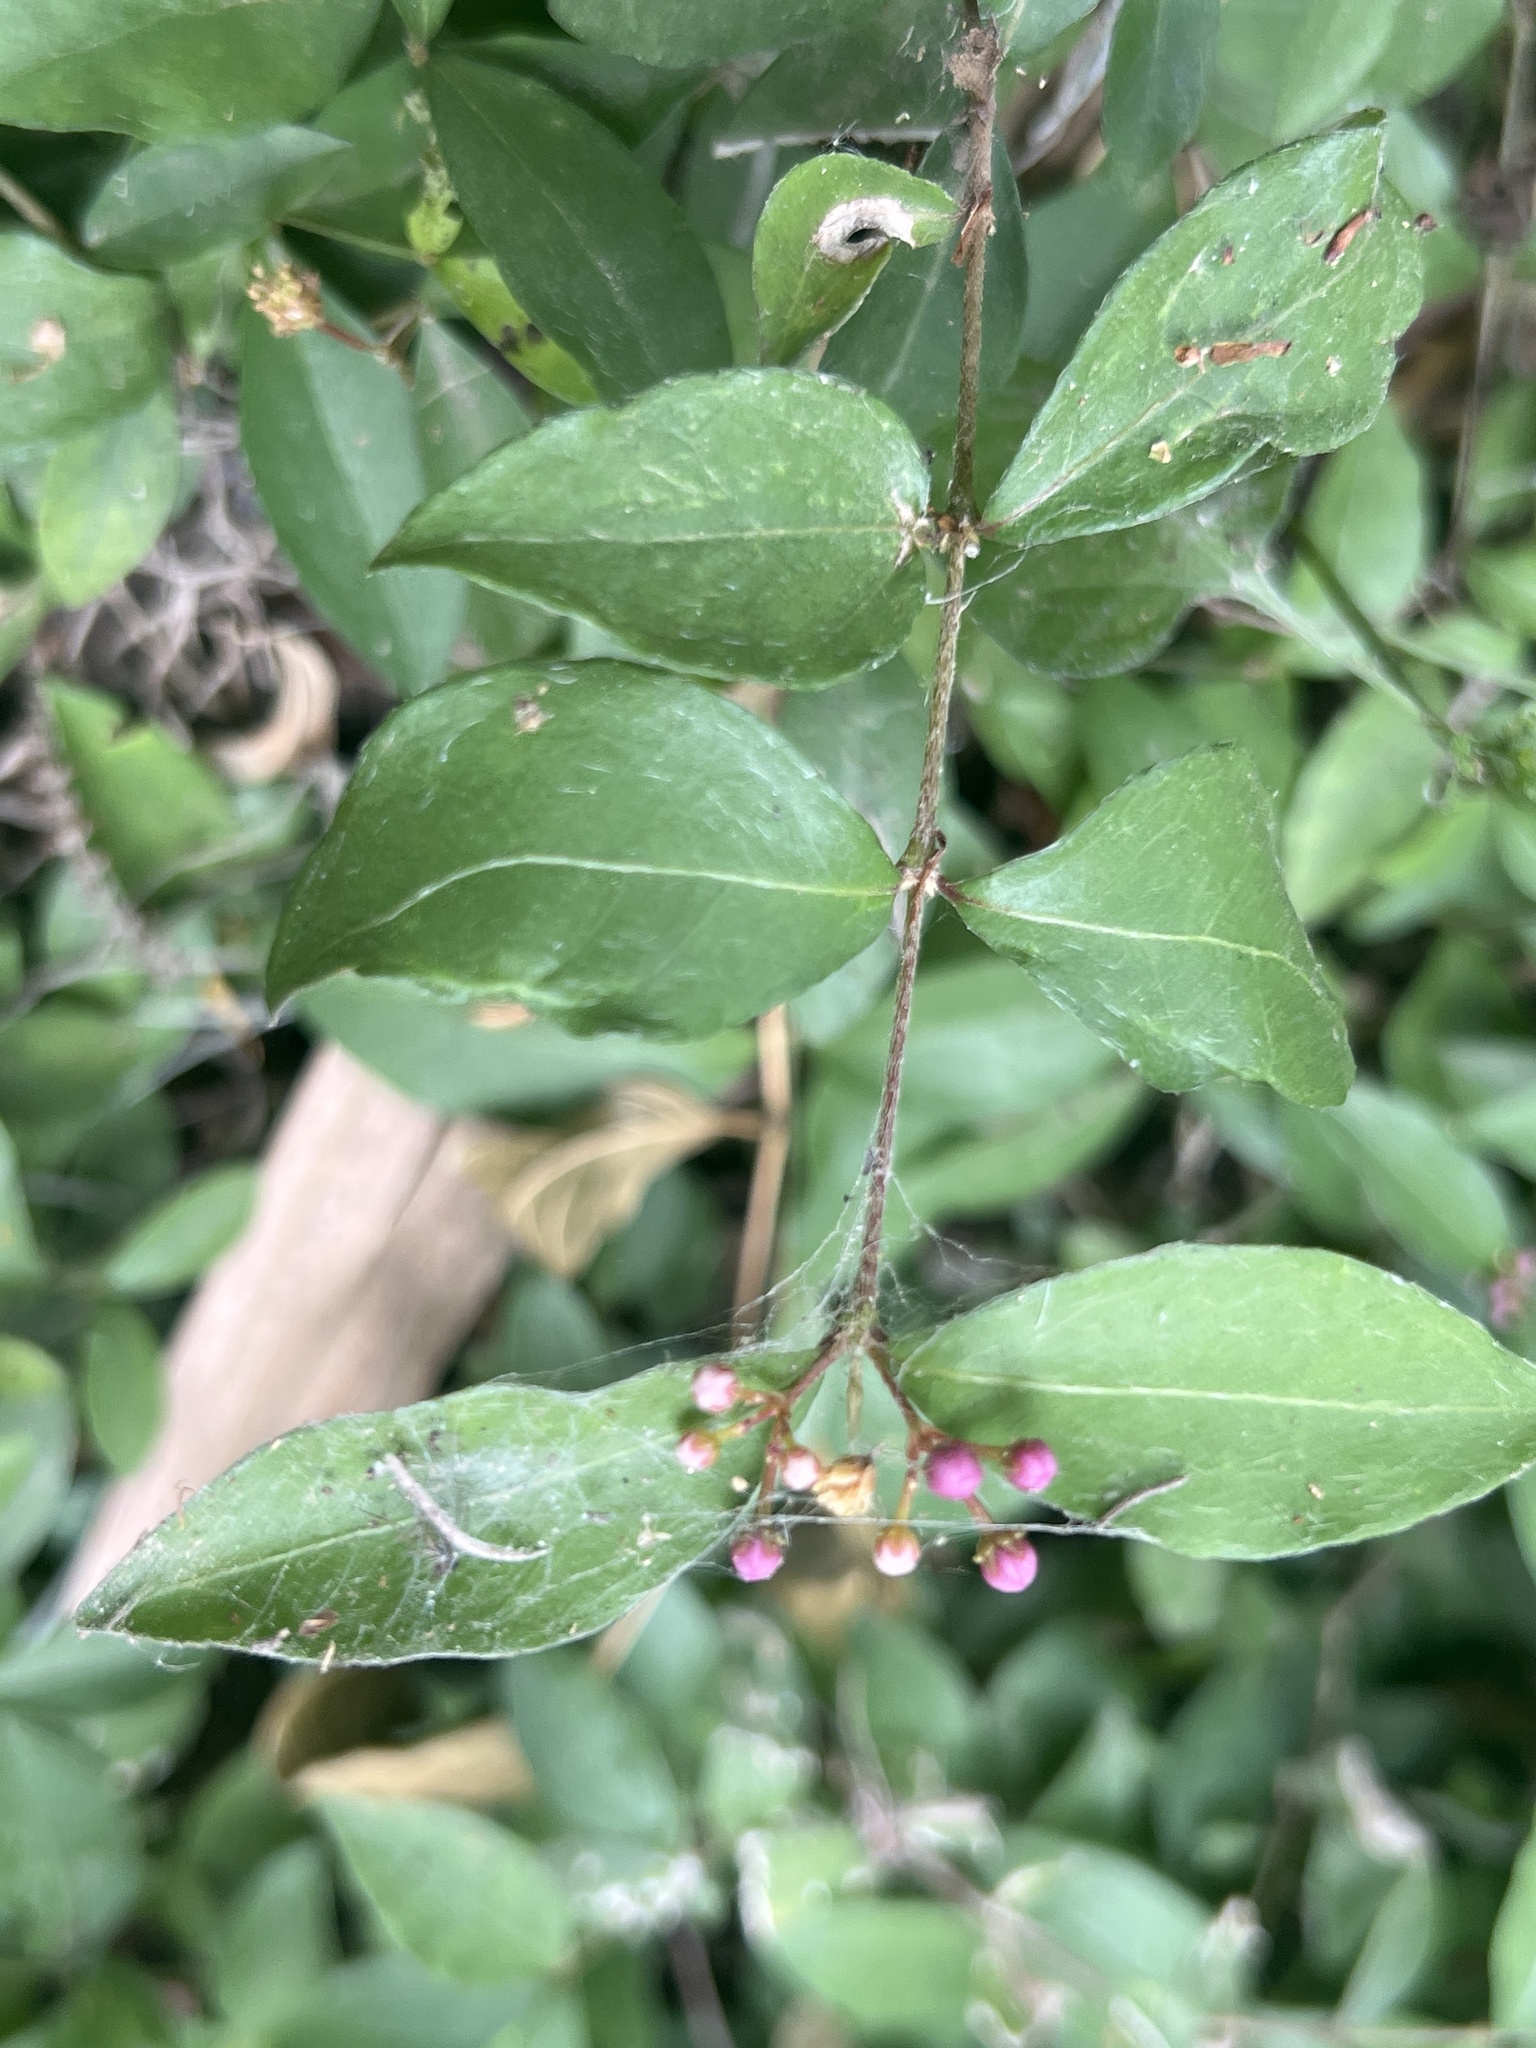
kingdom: Plantae
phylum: Tracheophyta
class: Magnoliopsida
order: Malpighiales
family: Malpighiaceae
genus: Malpighia
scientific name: Malpighia glabra
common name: Barbados cherry
